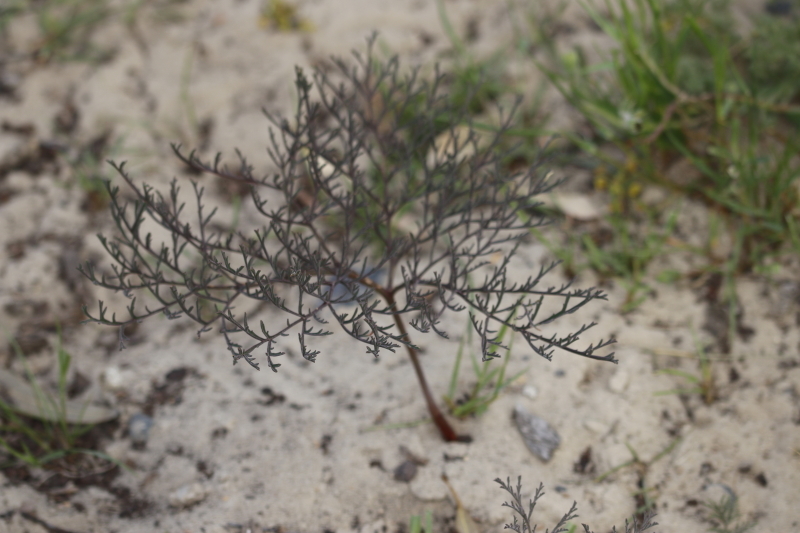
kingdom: Plantae
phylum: Tracheophyta
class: Magnoliopsida
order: Geraniales
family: Geraniaceae
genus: Pelargonium
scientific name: Pelargonium anethifolium
